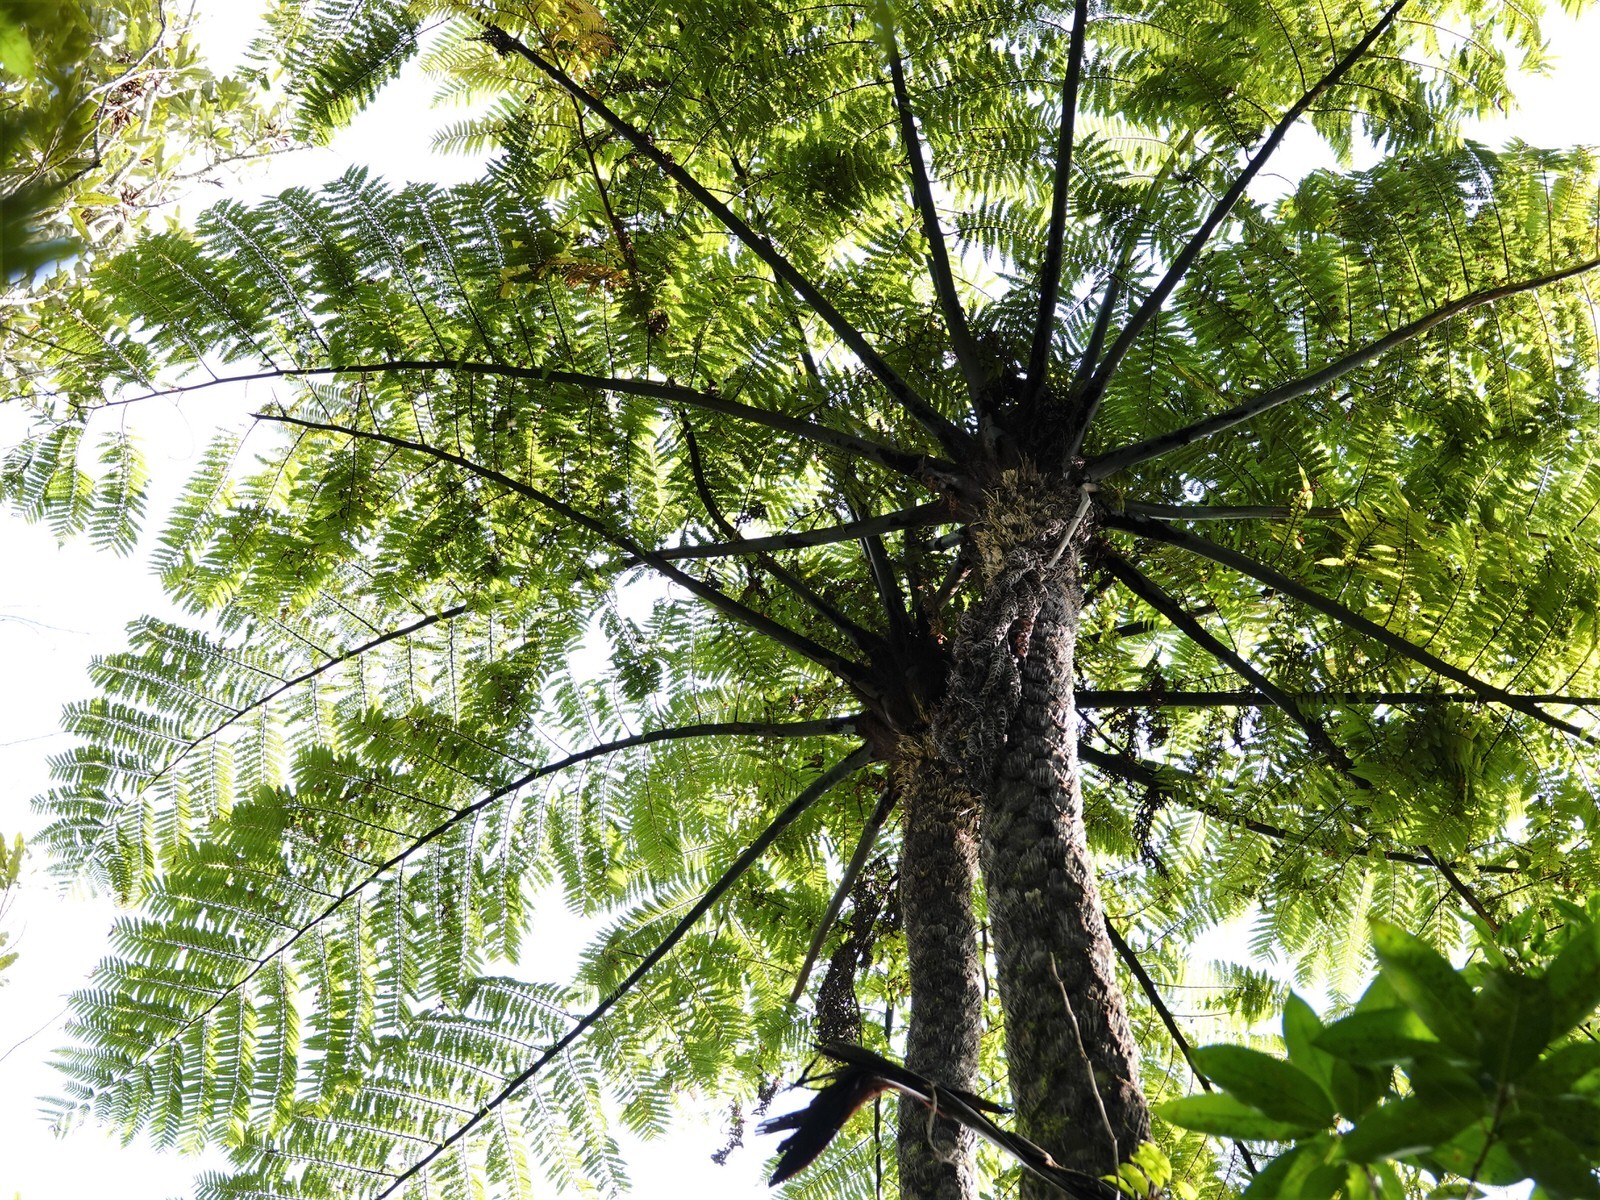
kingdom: Plantae
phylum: Tracheophyta
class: Polypodiopsida
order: Cyatheales
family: Cyatheaceae
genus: Sphaeropteris
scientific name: Sphaeropteris medullaris
